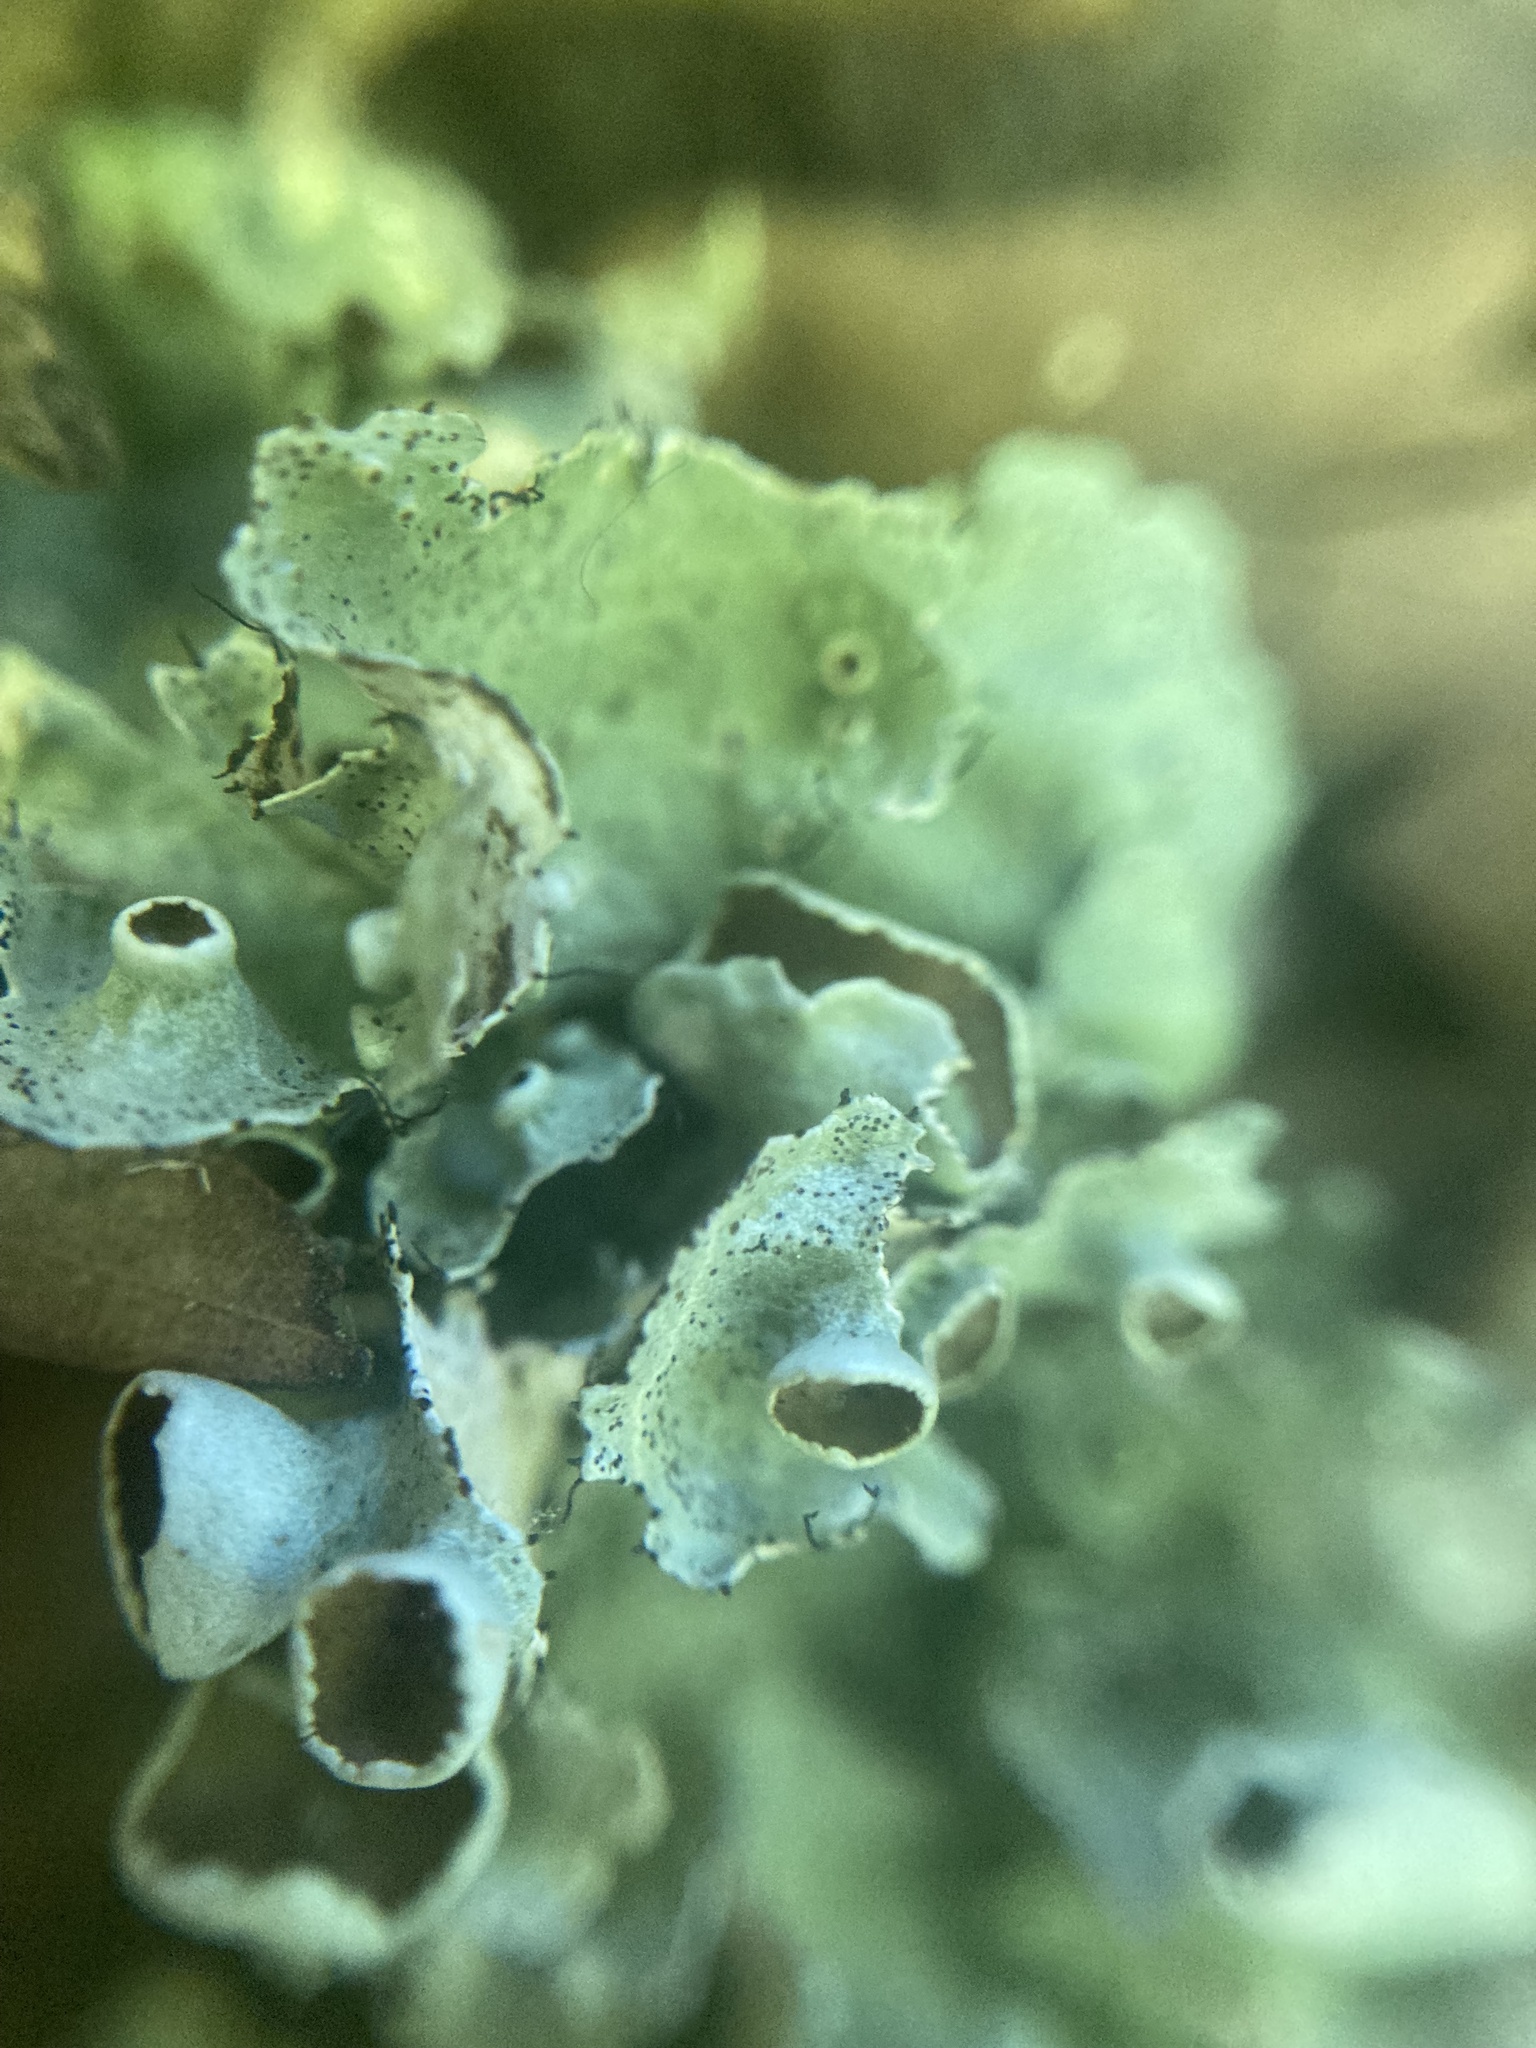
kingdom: Fungi
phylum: Ascomycota
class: Lecanoromycetes
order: Lecanorales
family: Parmeliaceae
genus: Parmotrema
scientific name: Parmotrema perforatum
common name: Perforated ruffle lichen
